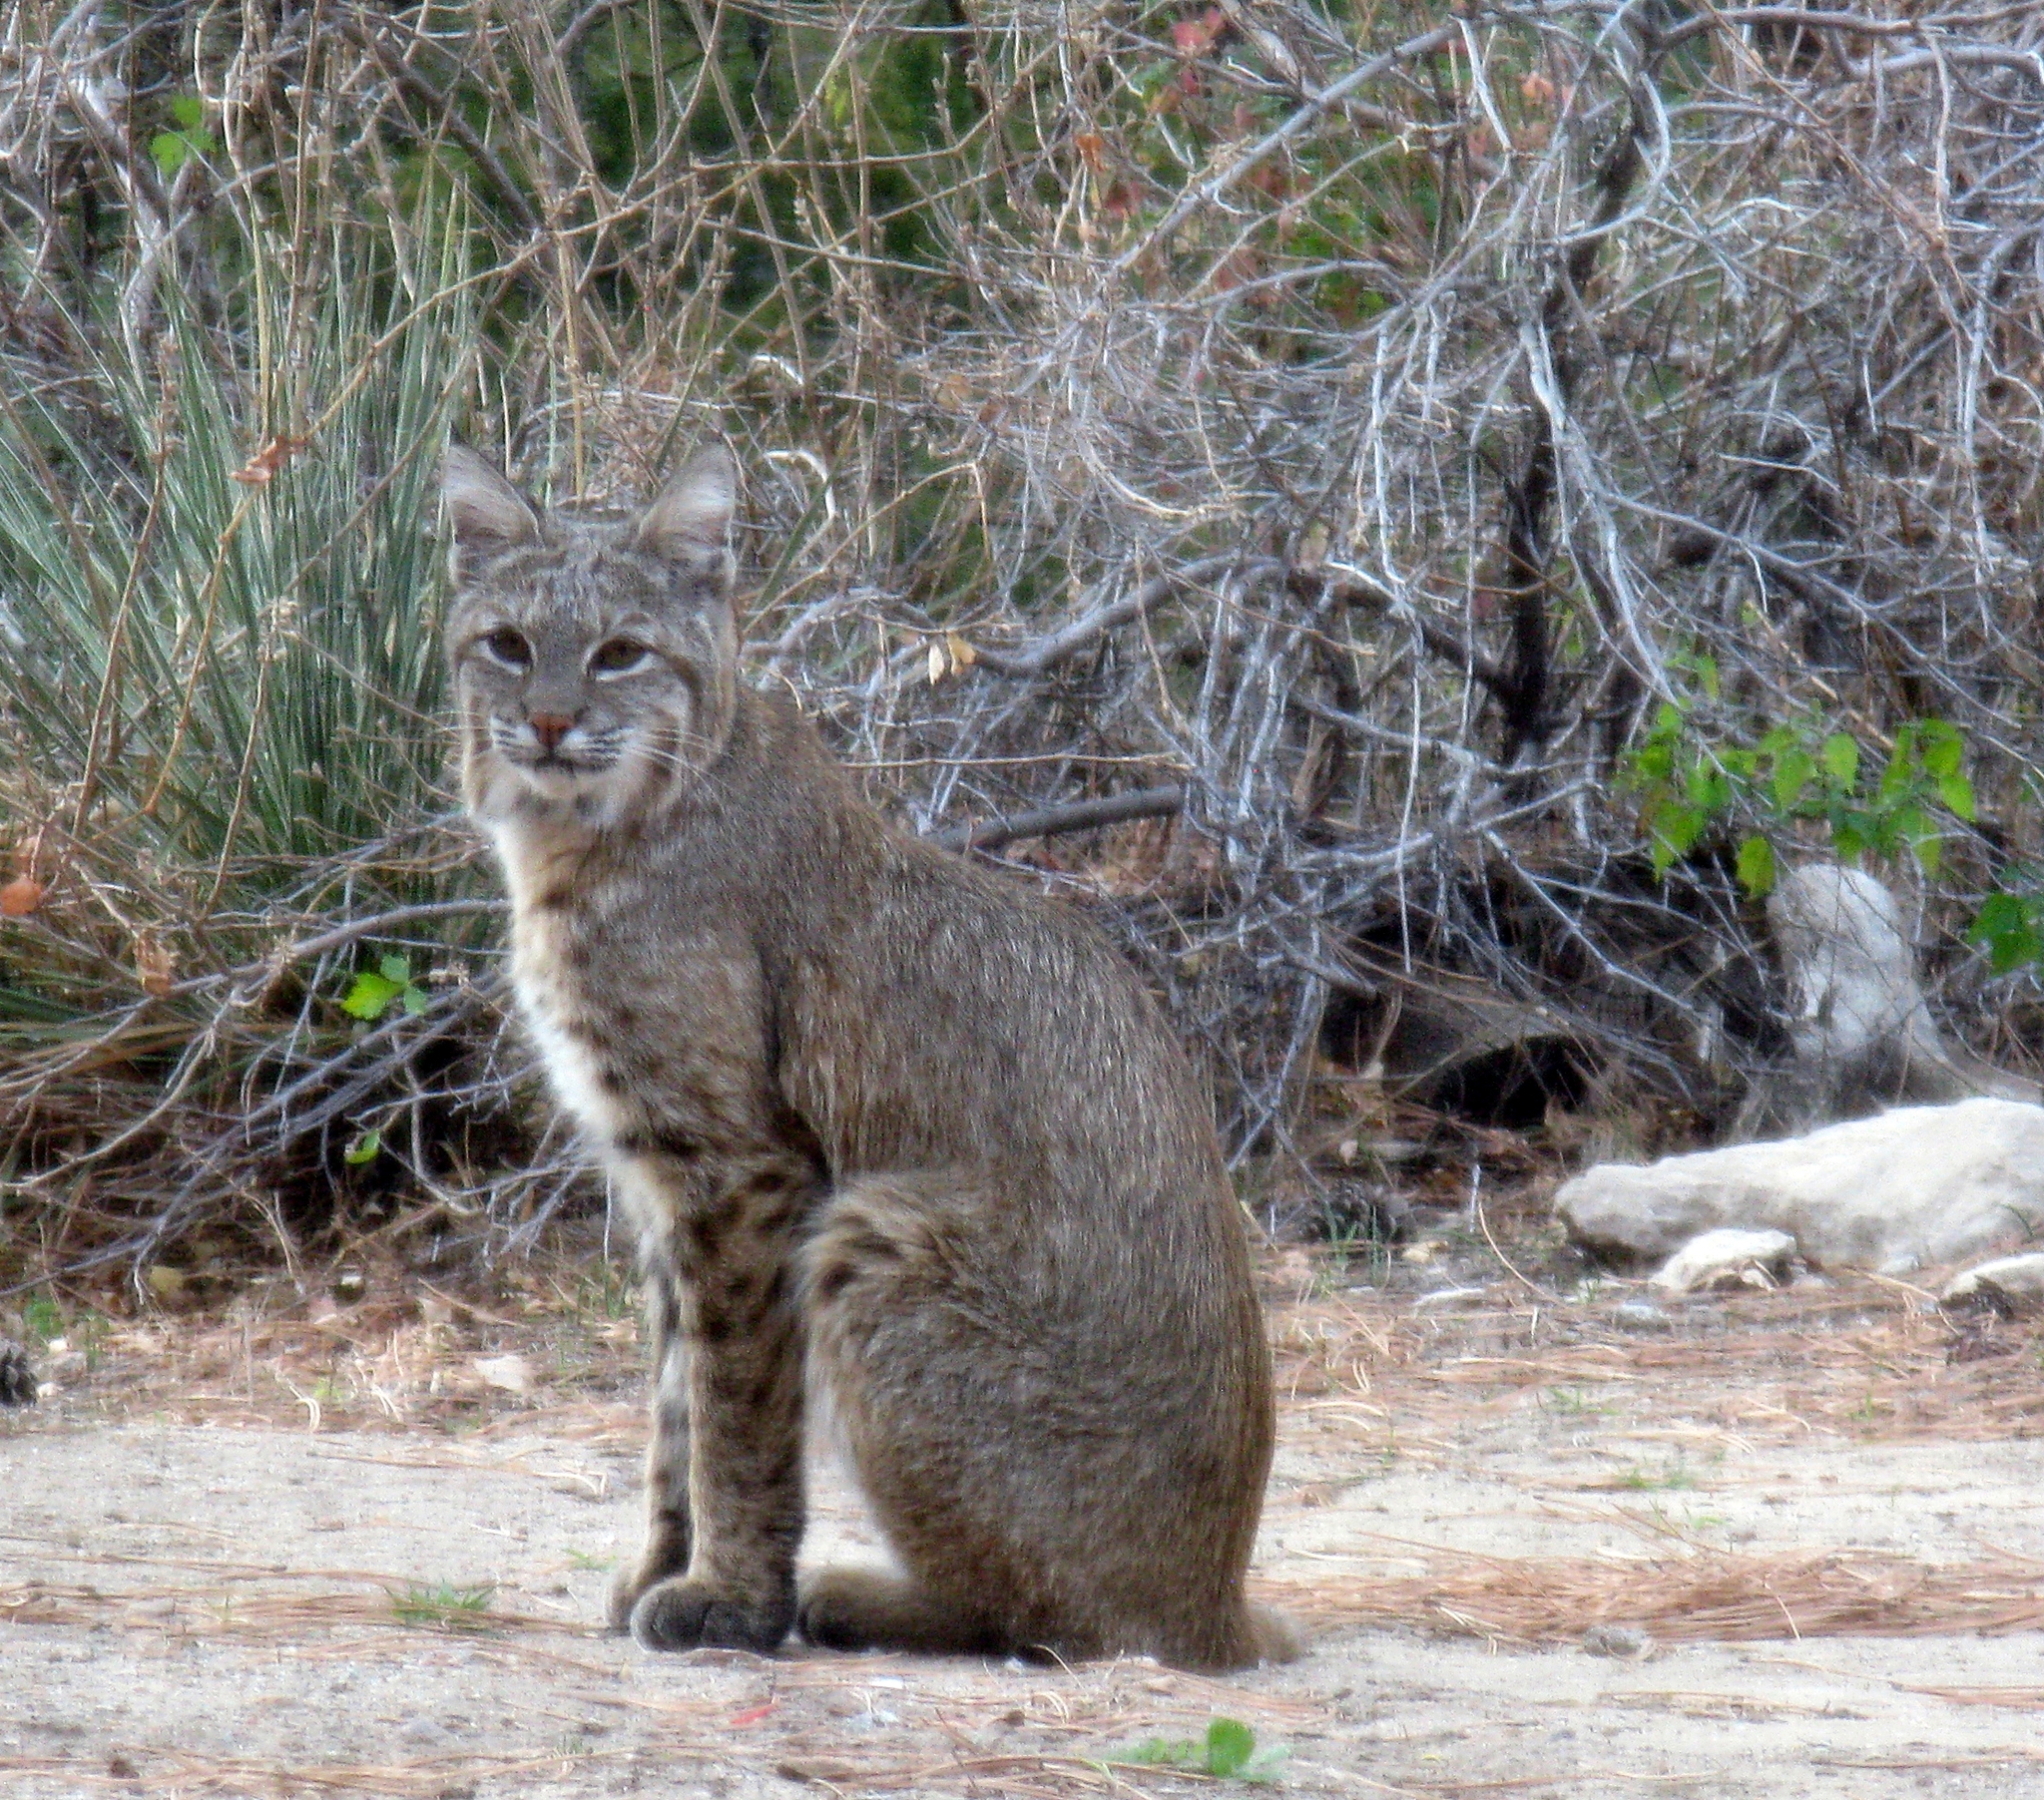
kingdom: Animalia
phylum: Chordata
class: Mammalia
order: Carnivora
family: Felidae
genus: Lynx
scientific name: Lynx rufus
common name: Bobcat
